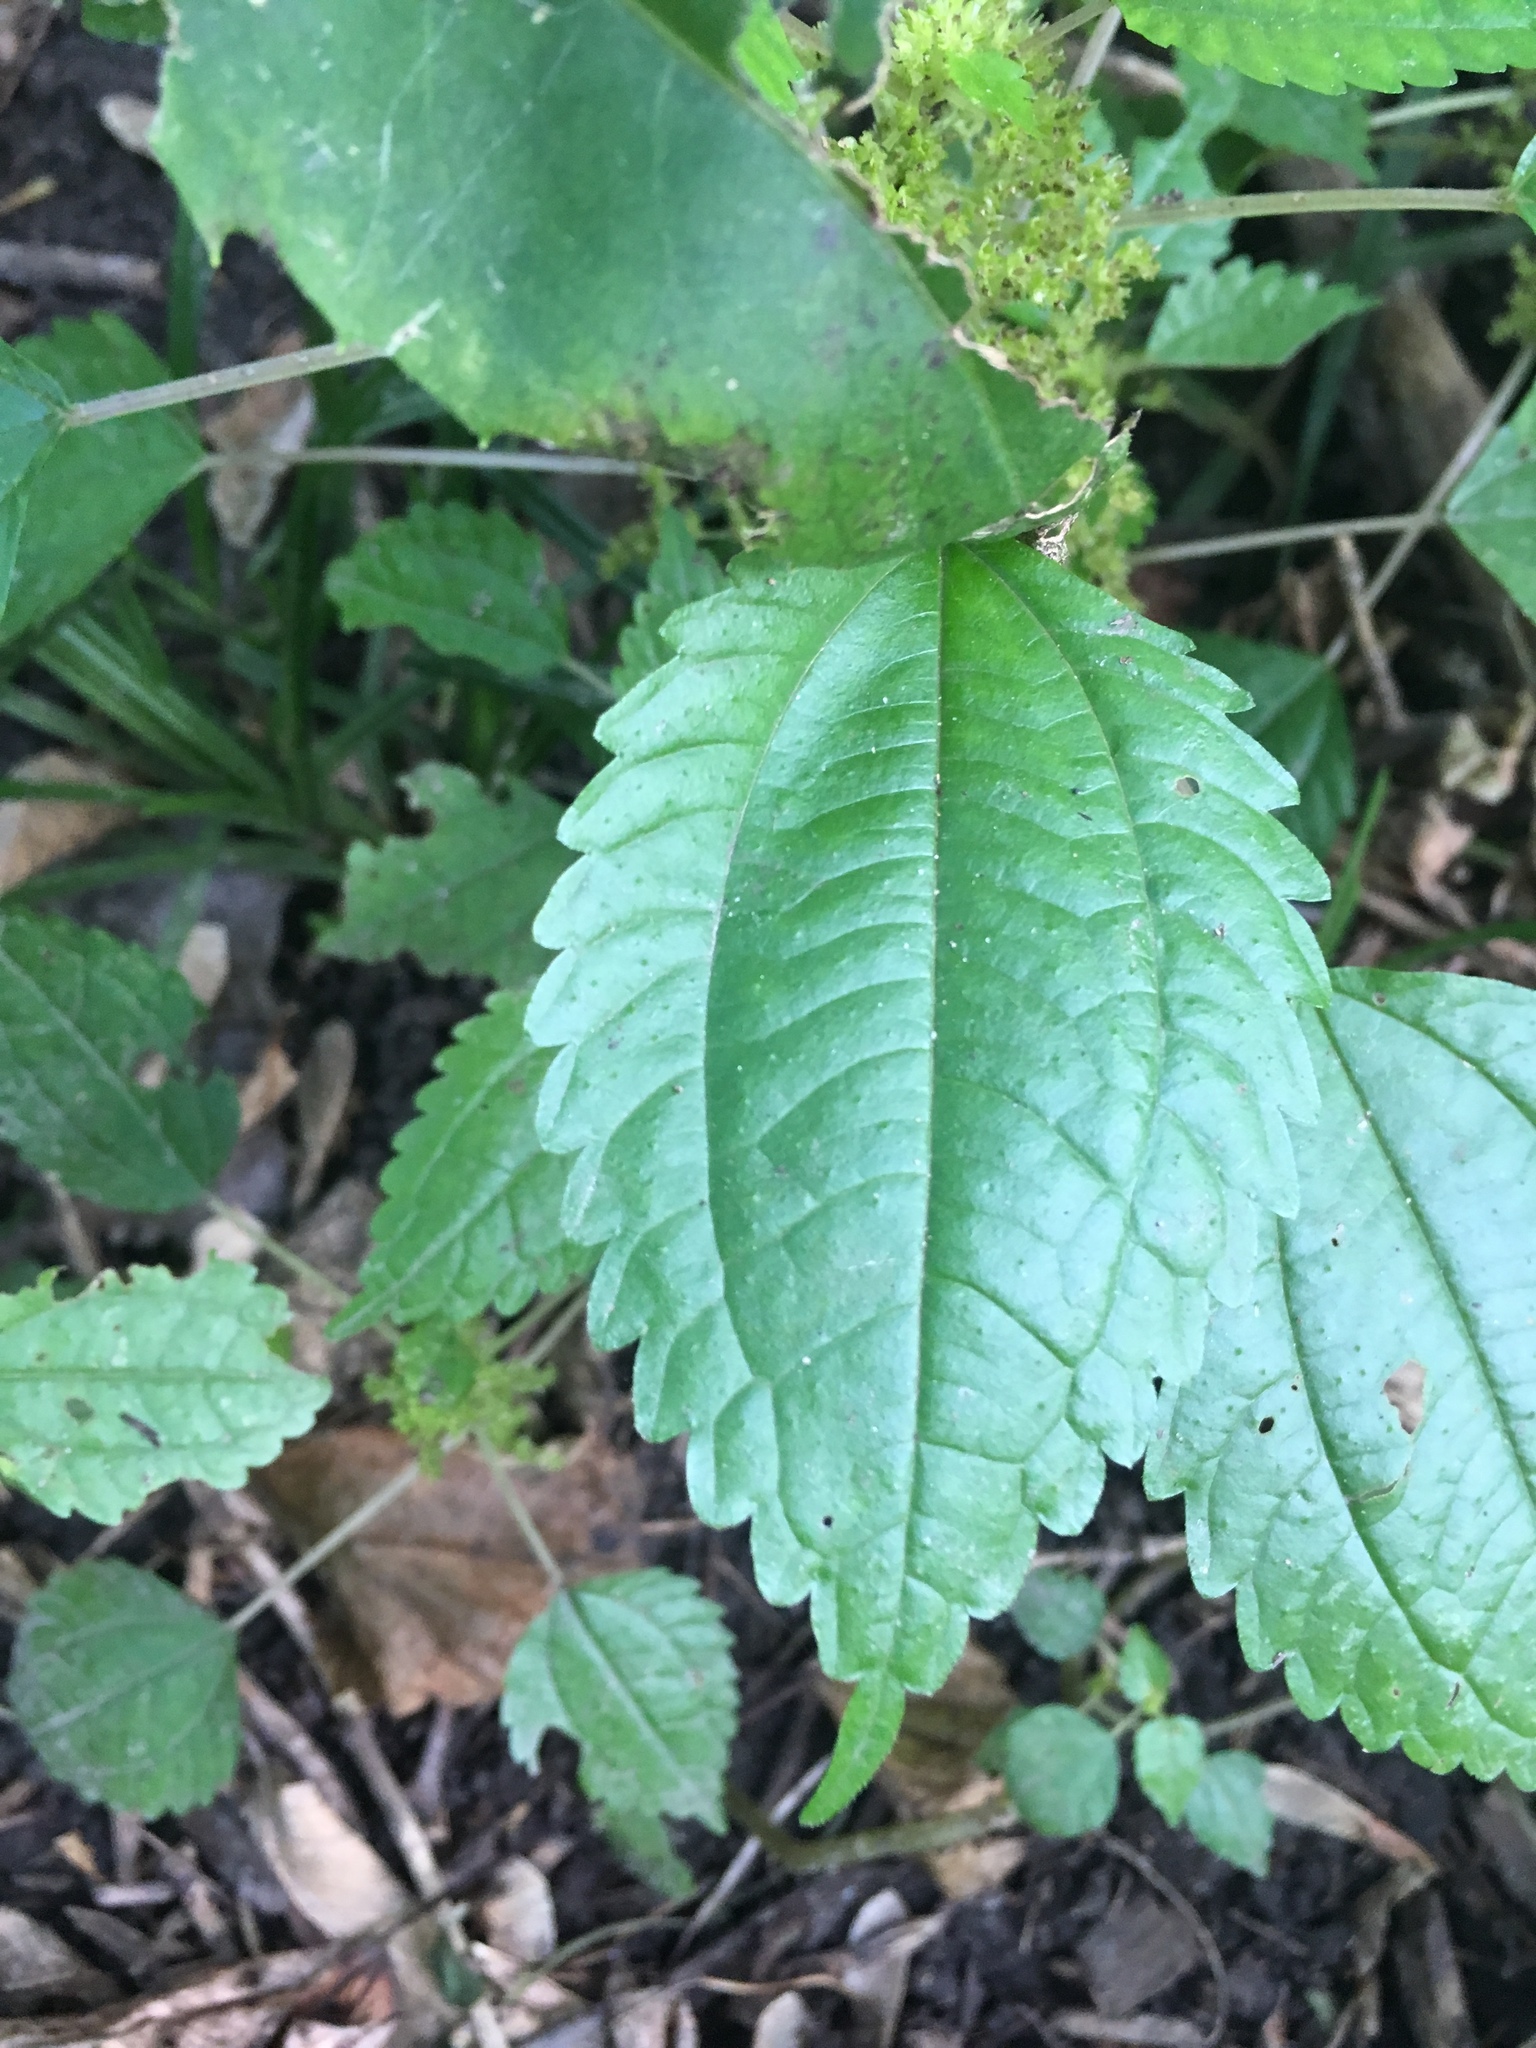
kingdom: Plantae
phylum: Tracheophyta
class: Magnoliopsida
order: Rosales
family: Urticaceae
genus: Pilea
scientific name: Pilea pumila
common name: Clearweed
